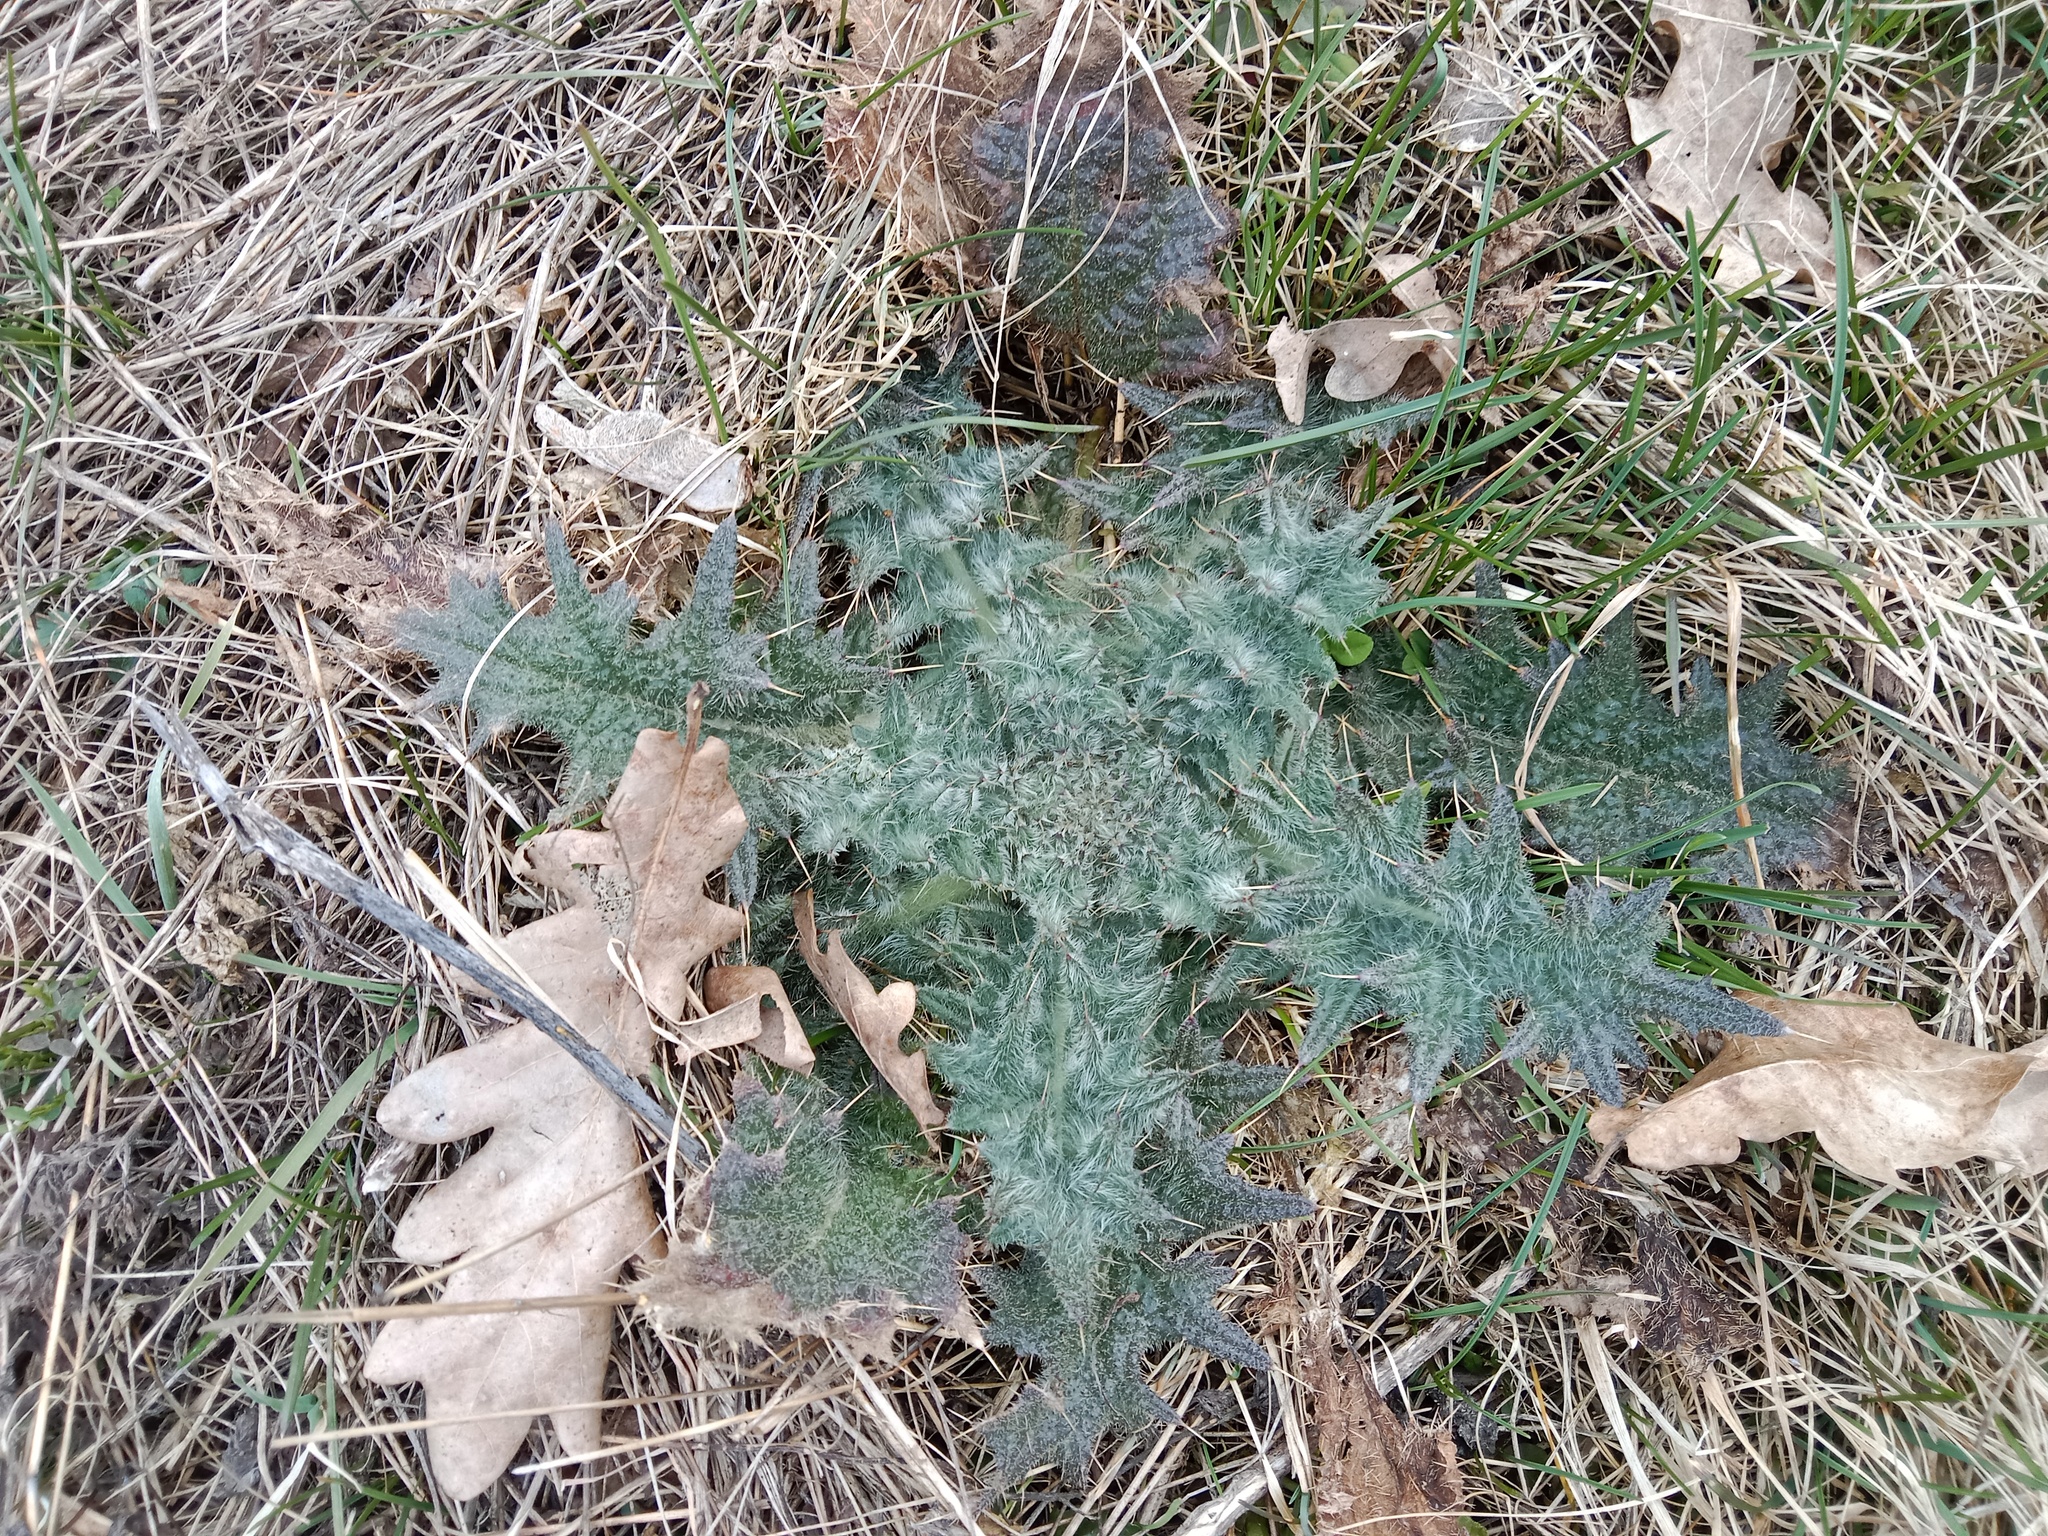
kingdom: Plantae
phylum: Tracheophyta
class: Magnoliopsida
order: Asterales
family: Asteraceae
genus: Cirsium
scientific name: Cirsium vulgare
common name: Bull thistle
